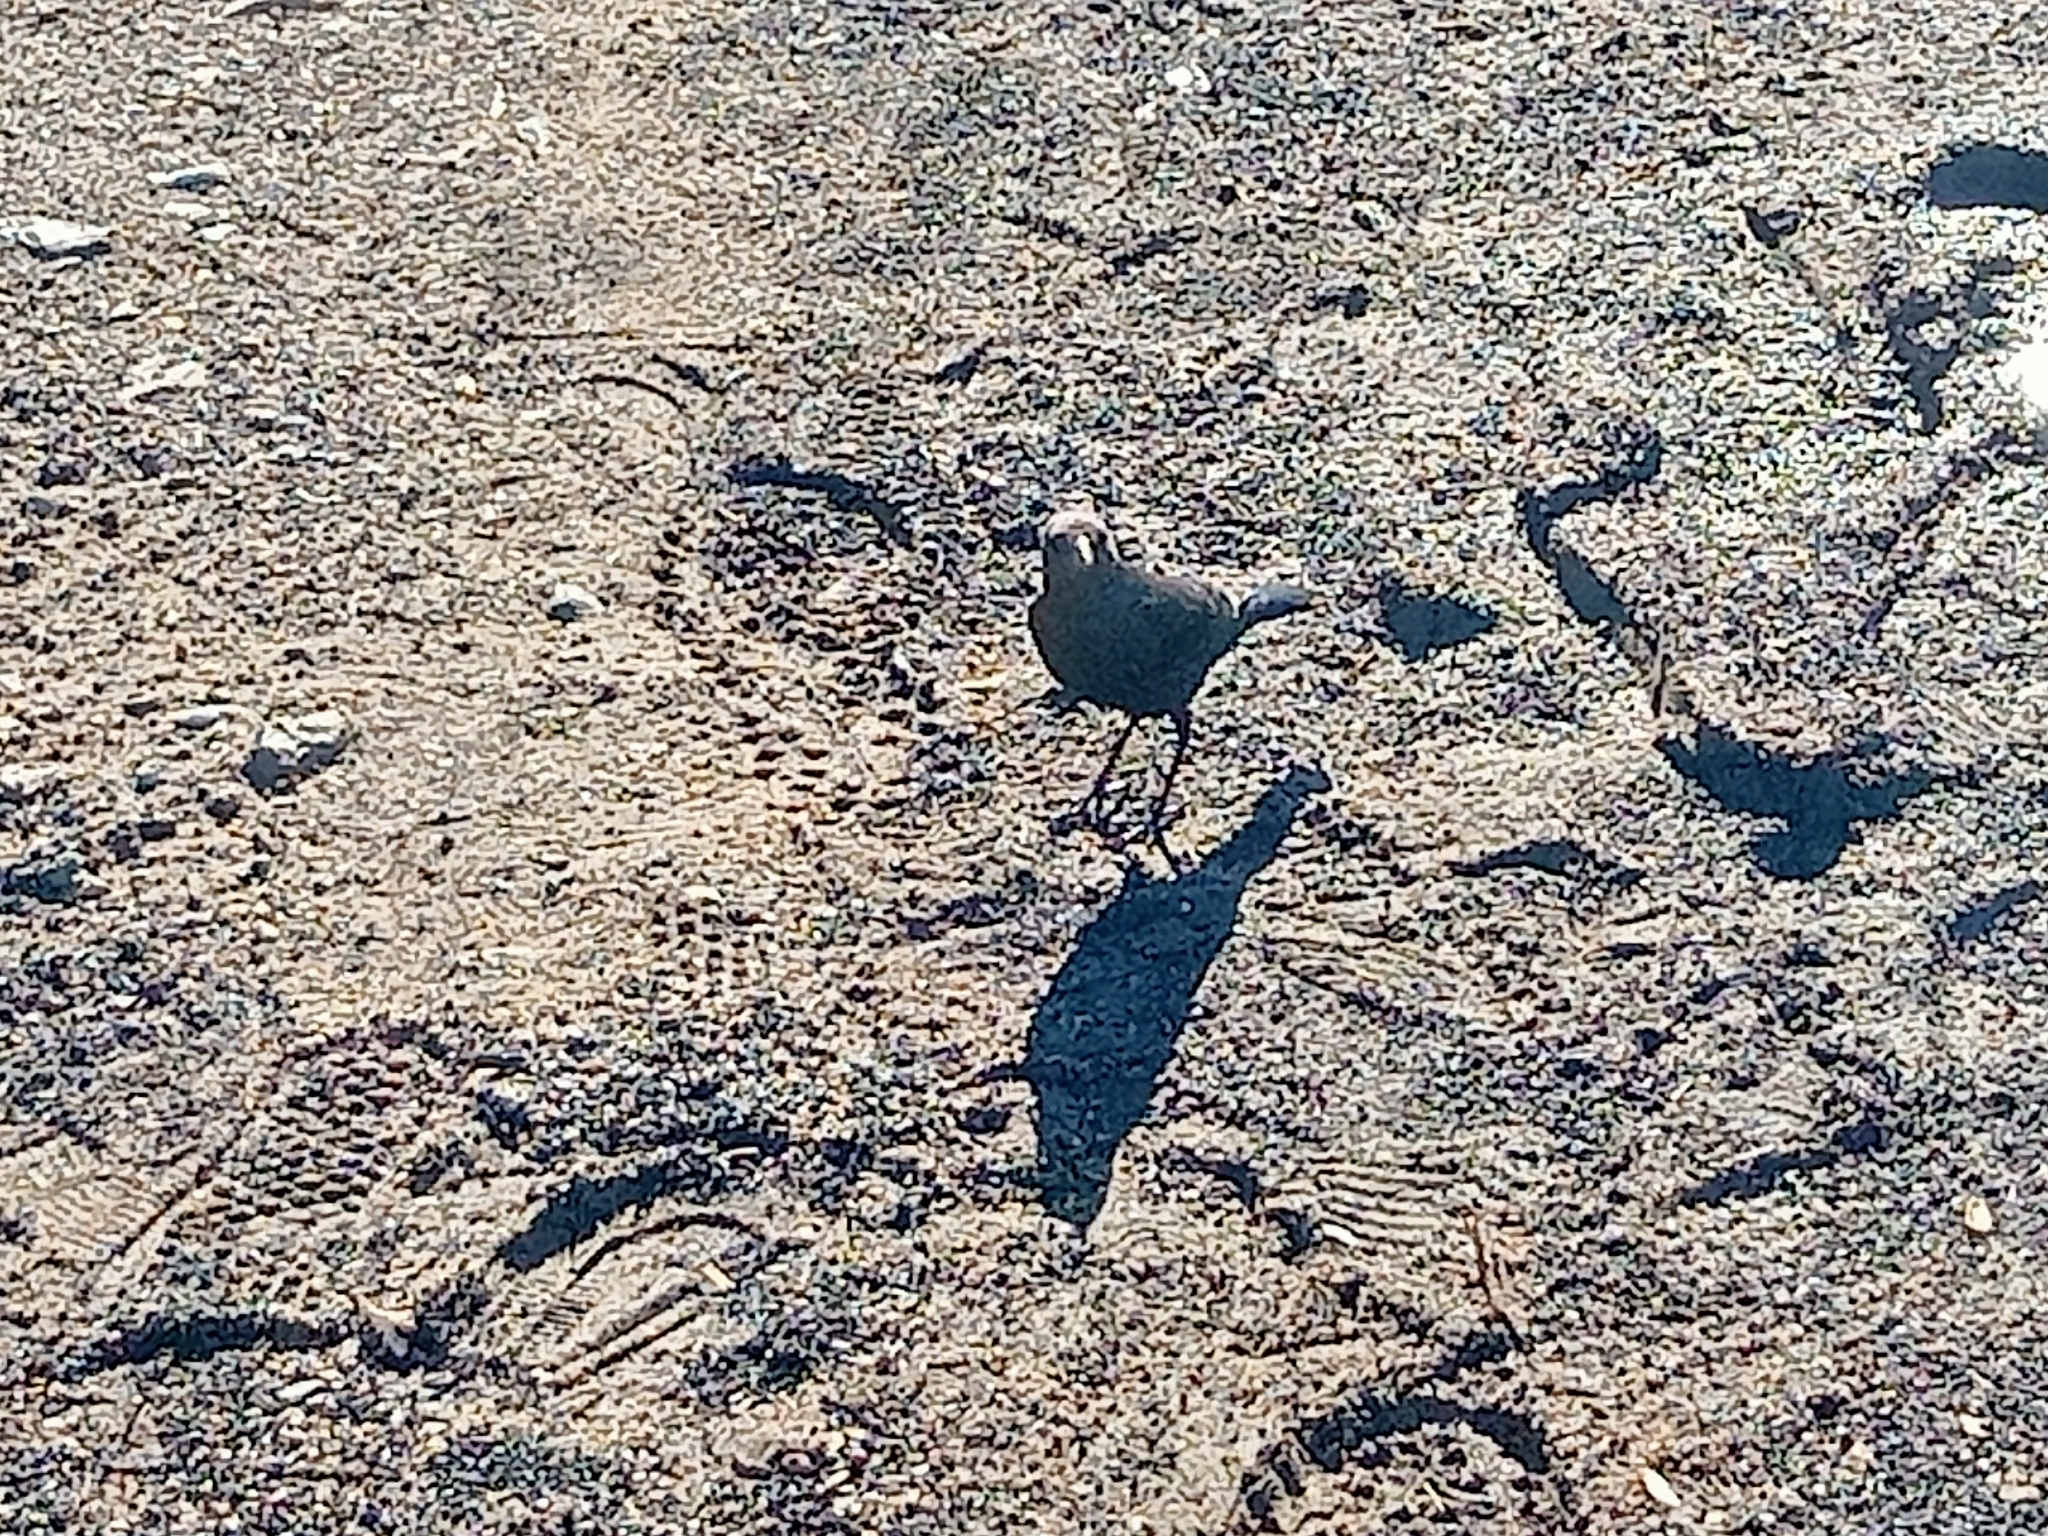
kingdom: Animalia
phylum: Chordata
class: Aves
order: Passeriformes
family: Icteridae
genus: Euphagus
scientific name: Euphagus cyanocephalus
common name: Brewer's blackbird
